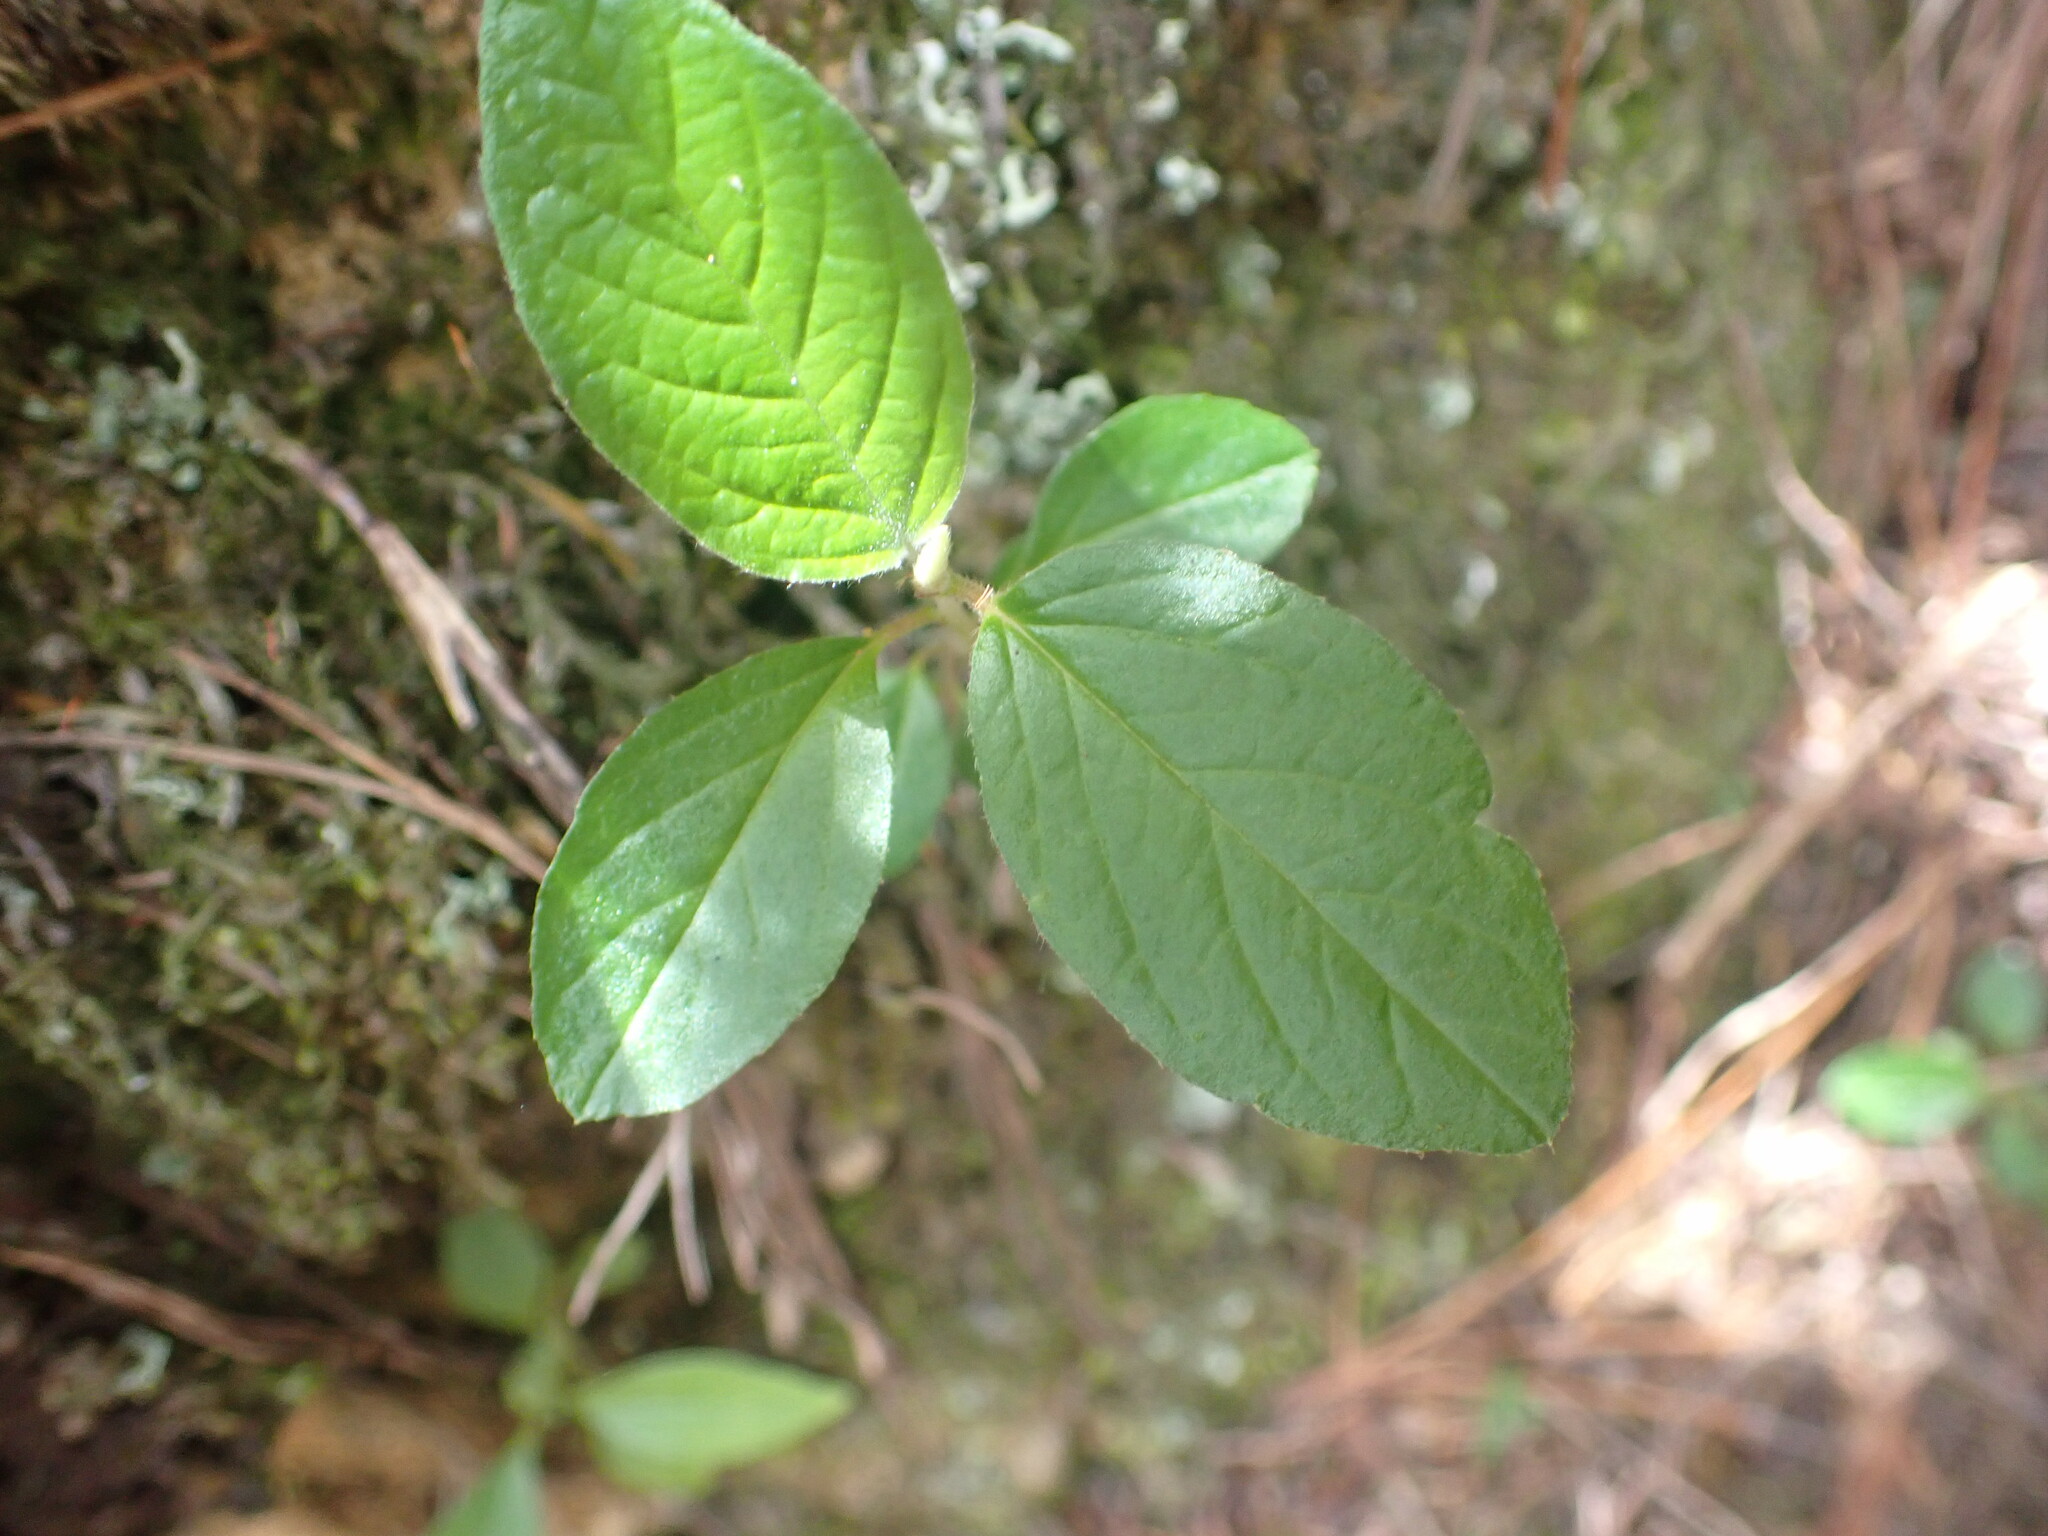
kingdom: Plantae
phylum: Tracheophyta
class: Magnoliopsida
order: Rosales
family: Rhamnaceae
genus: Pomaderris
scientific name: Pomaderris kumeraho
